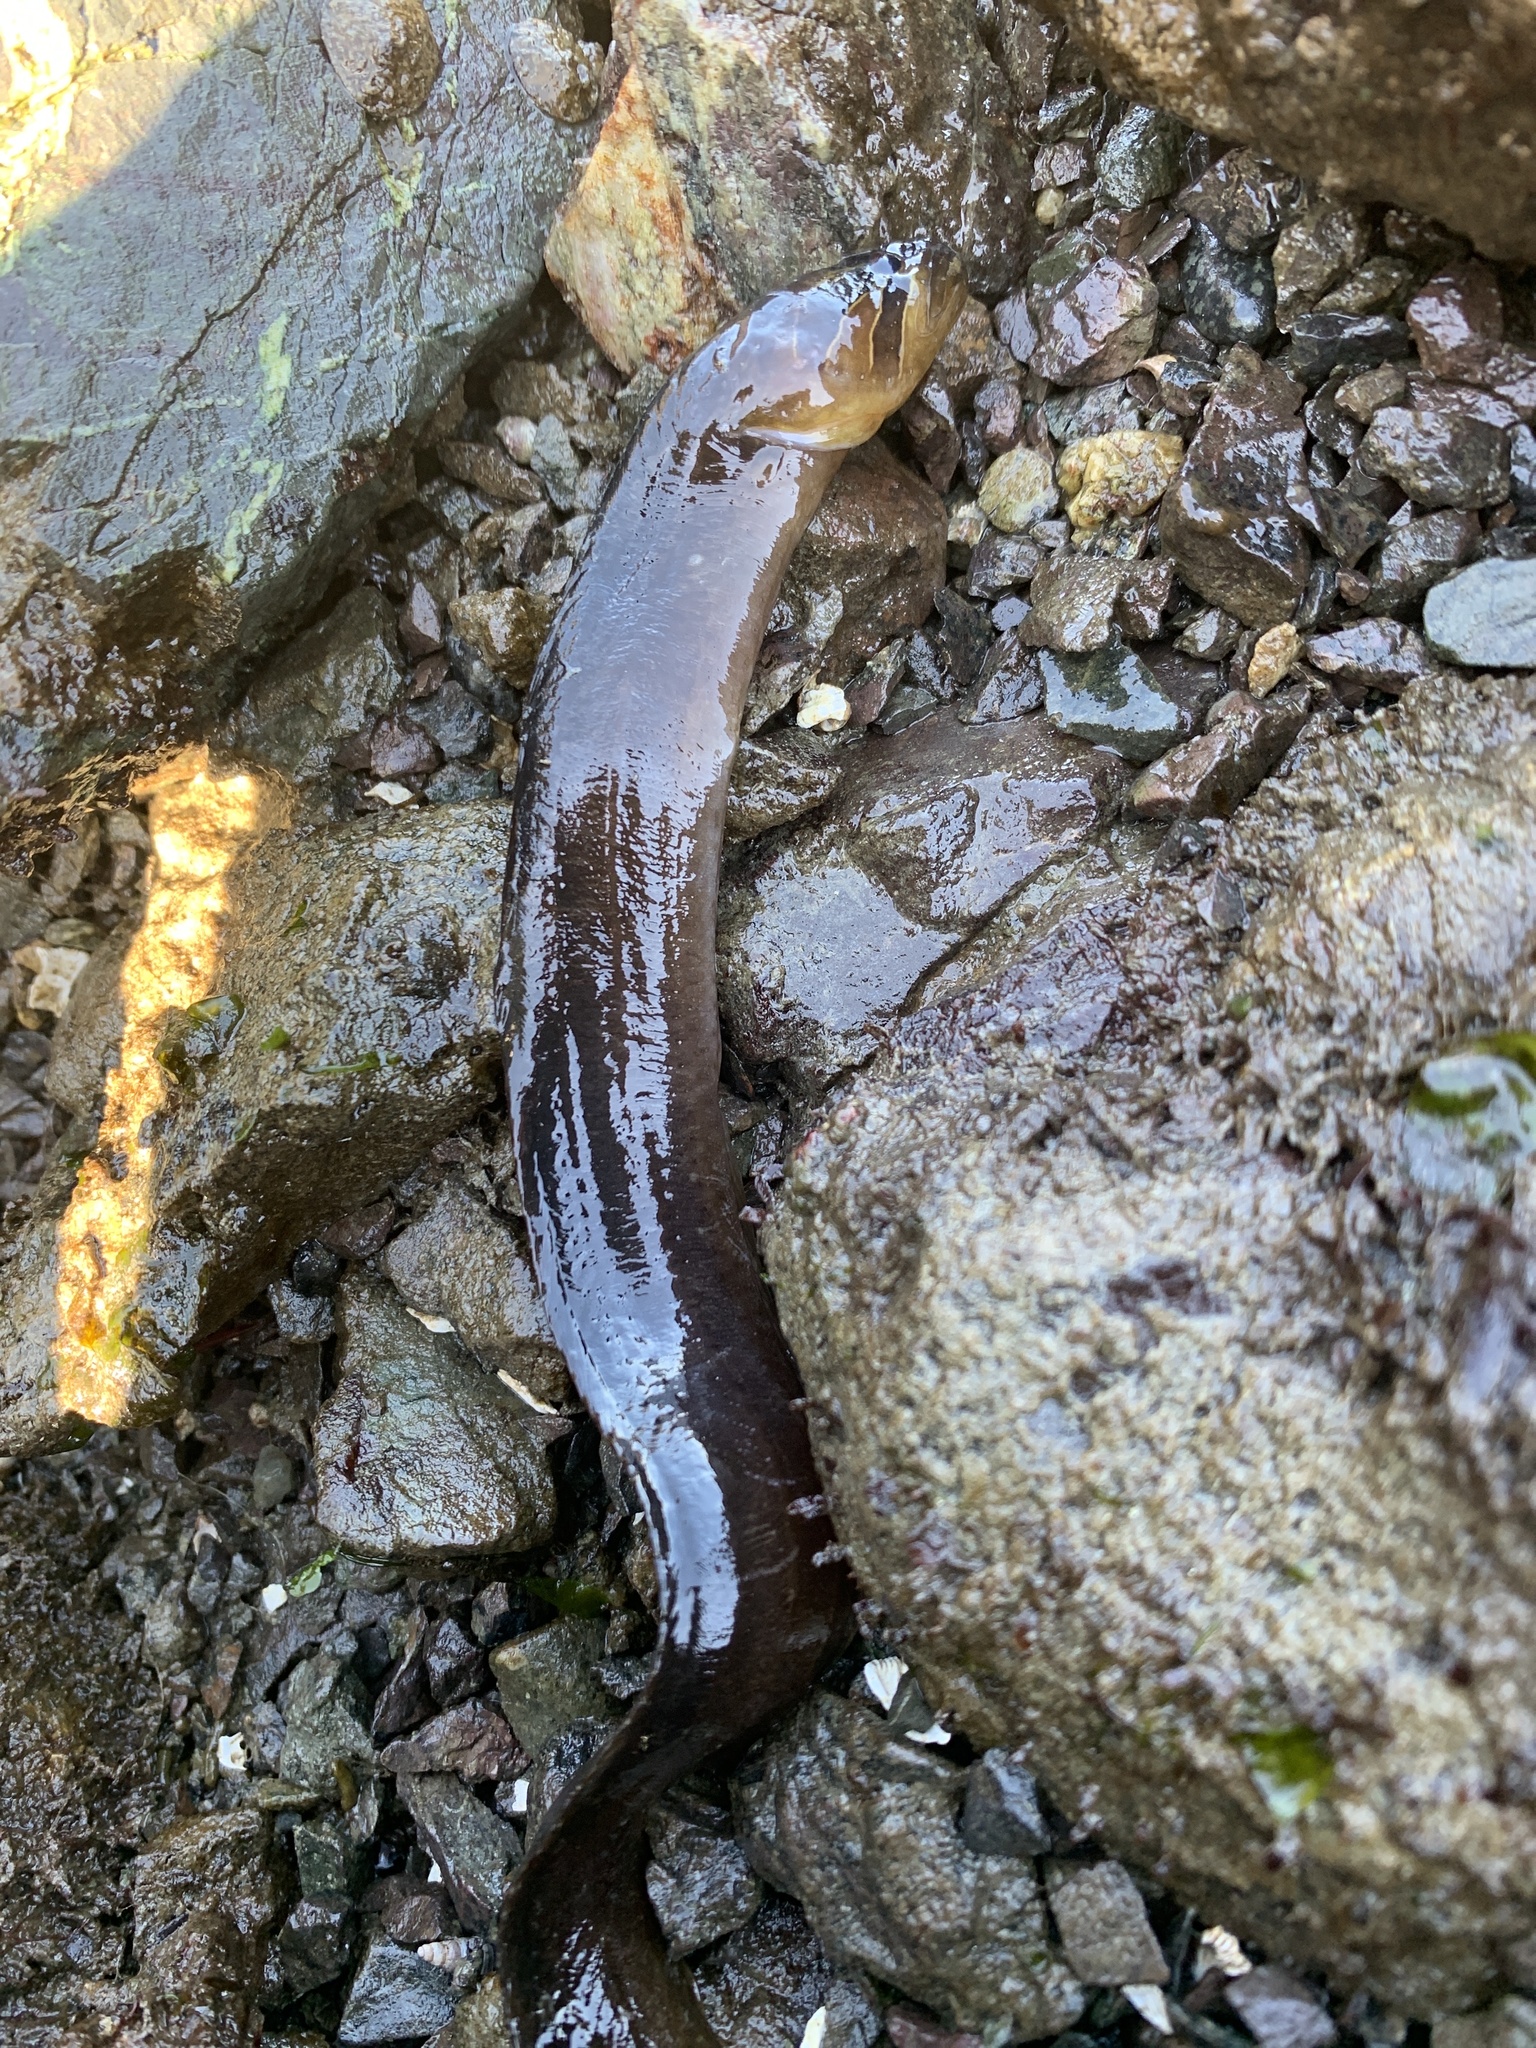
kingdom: Animalia
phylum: Chordata
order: Perciformes
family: Stichaeidae
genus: Xiphister
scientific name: Xiphister atropurpureus
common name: Black prickleback
